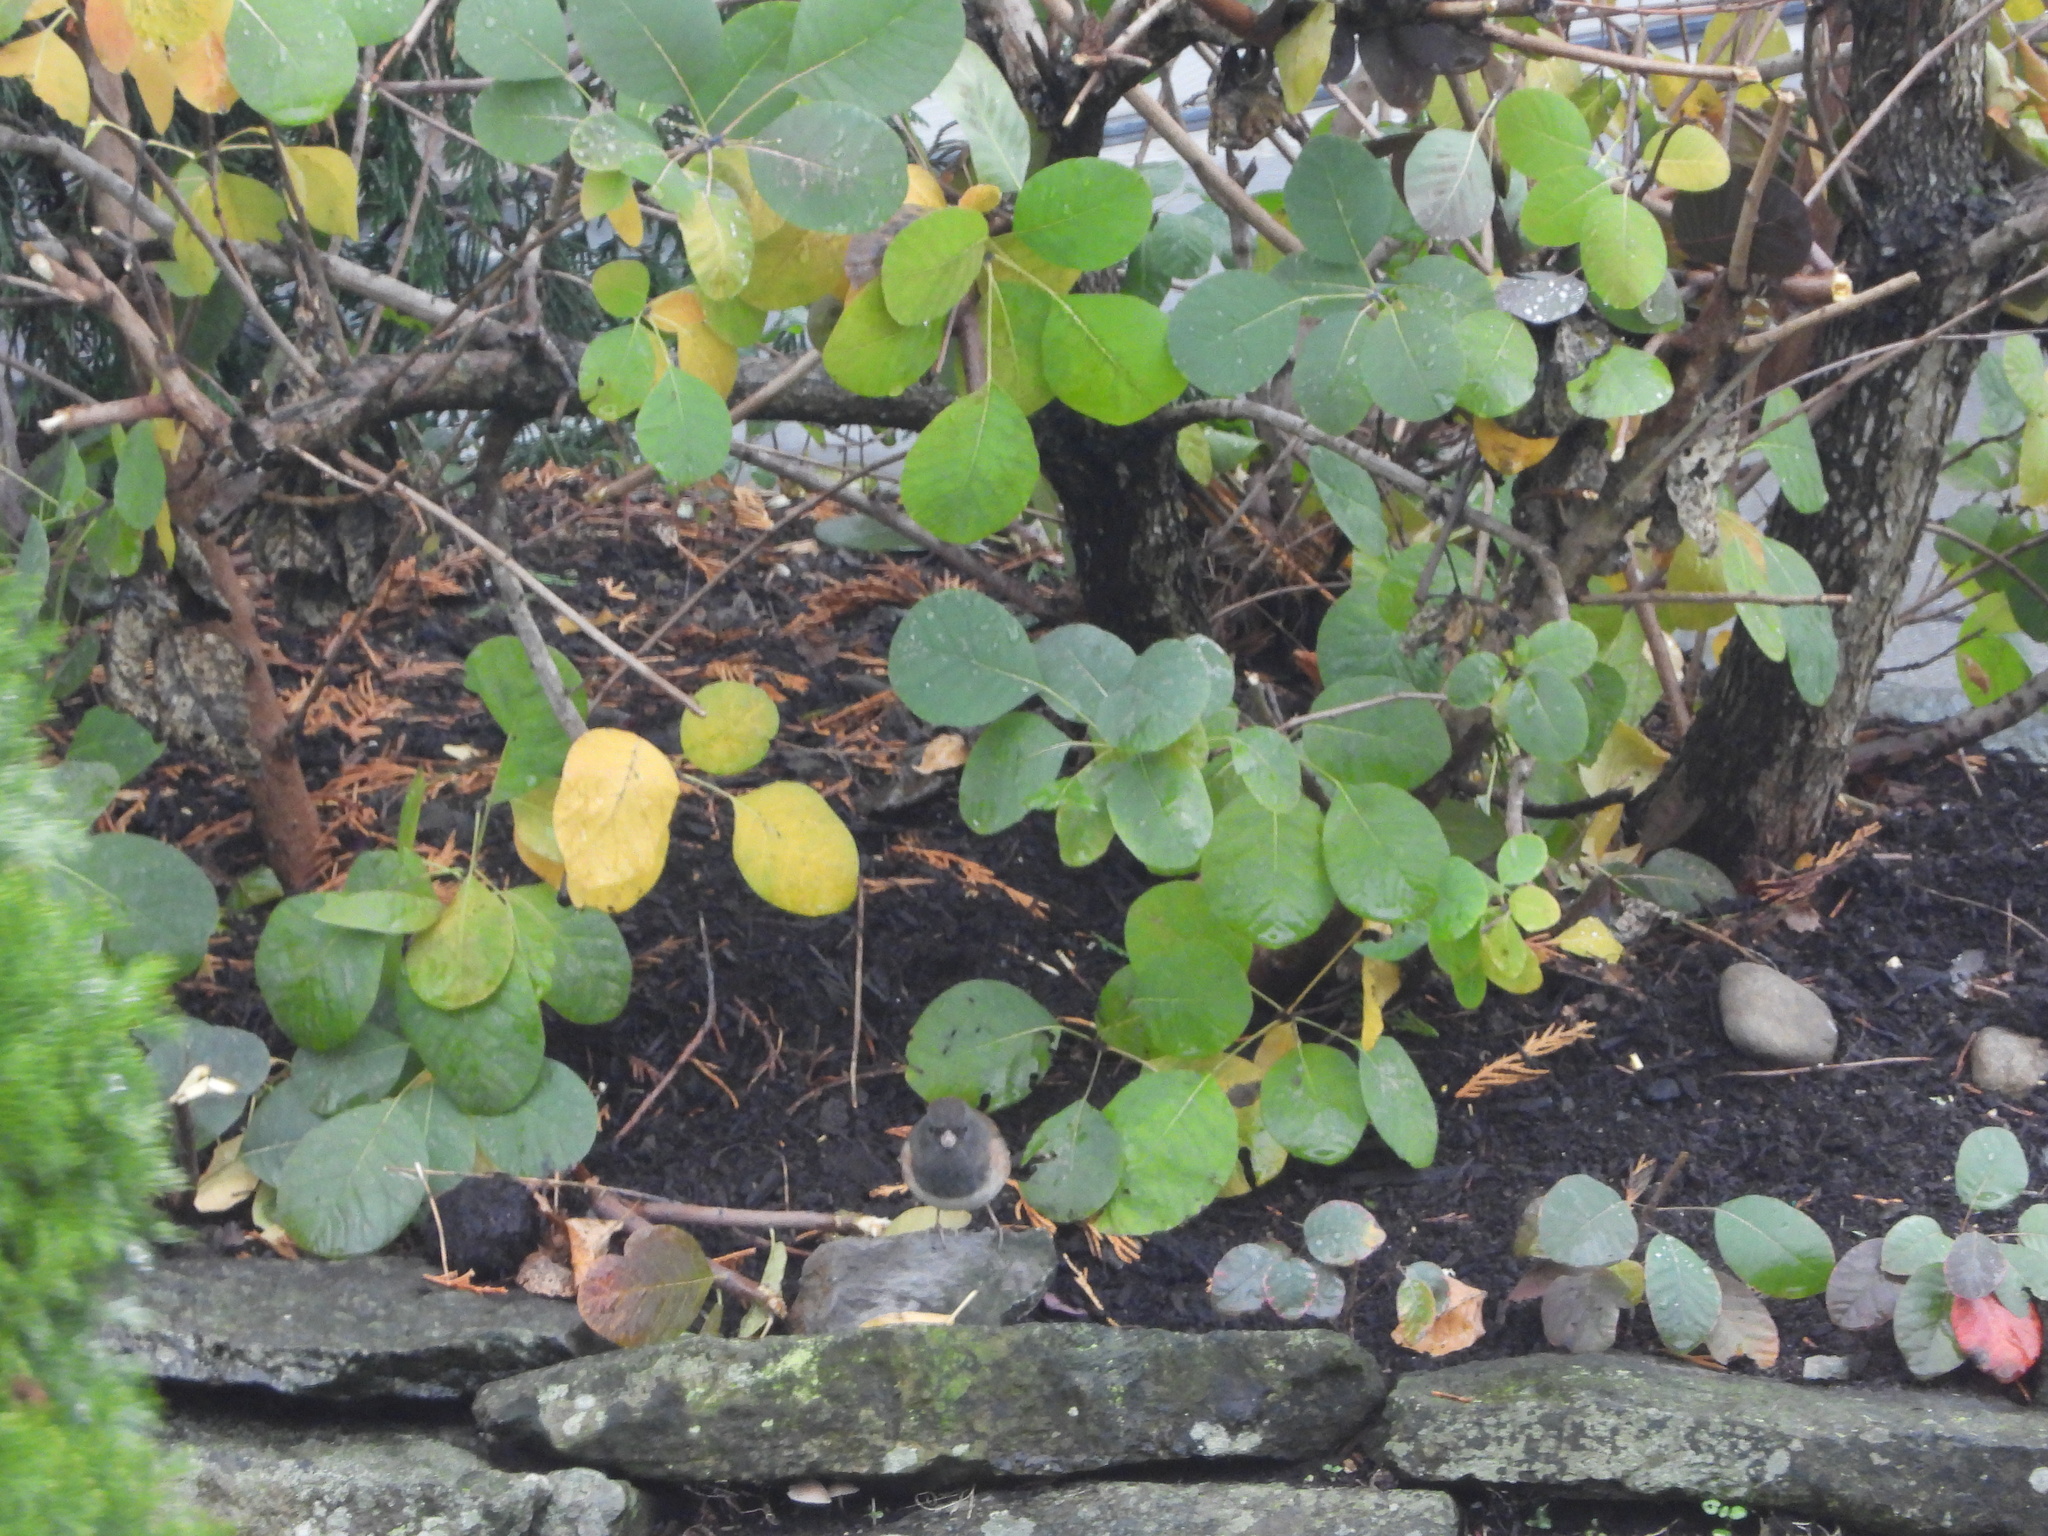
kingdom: Animalia
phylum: Chordata
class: Aves
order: Passeriformes
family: Passerellidae
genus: Junco
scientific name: Junco hyemalis
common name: Dark-eyed junco
